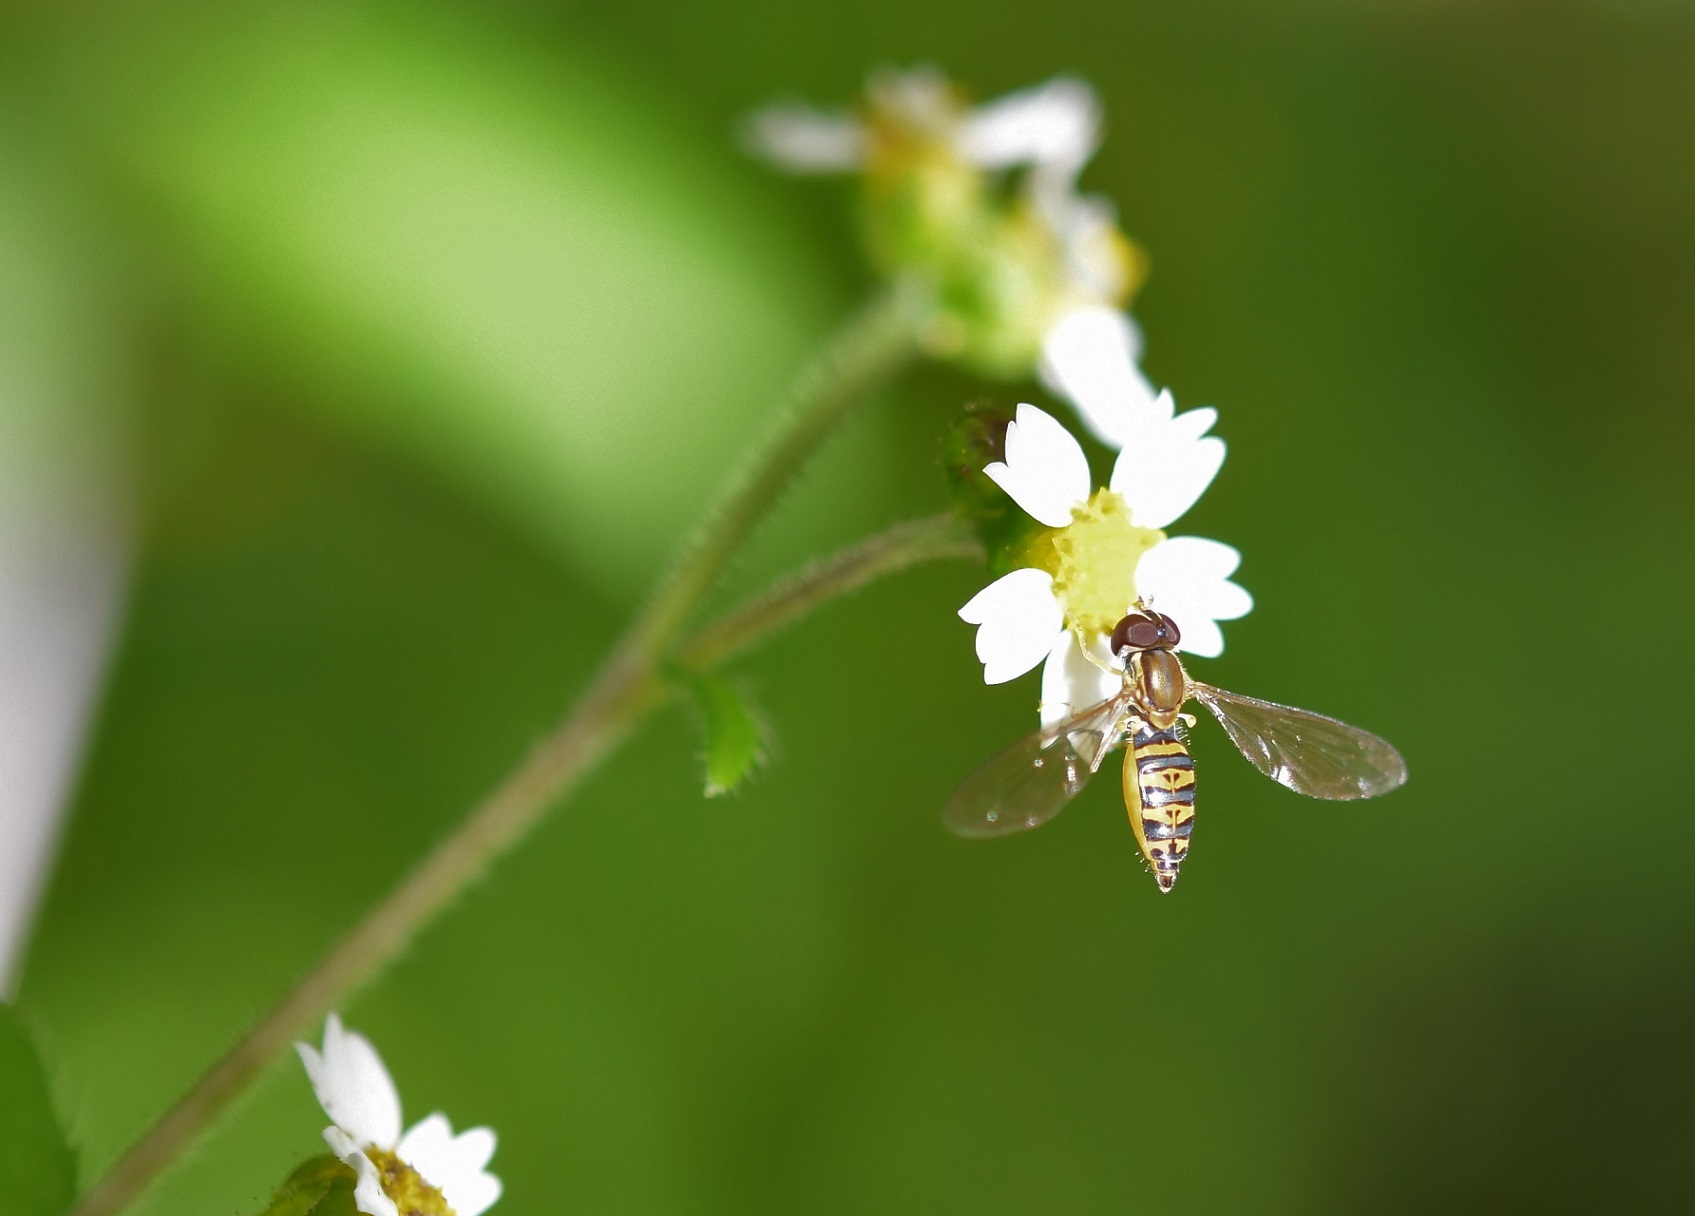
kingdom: Animalia
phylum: Arthropoda
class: Insecta
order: Diptera
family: Syrphidae
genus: Toxomerus
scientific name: Toxomerus mutuus
